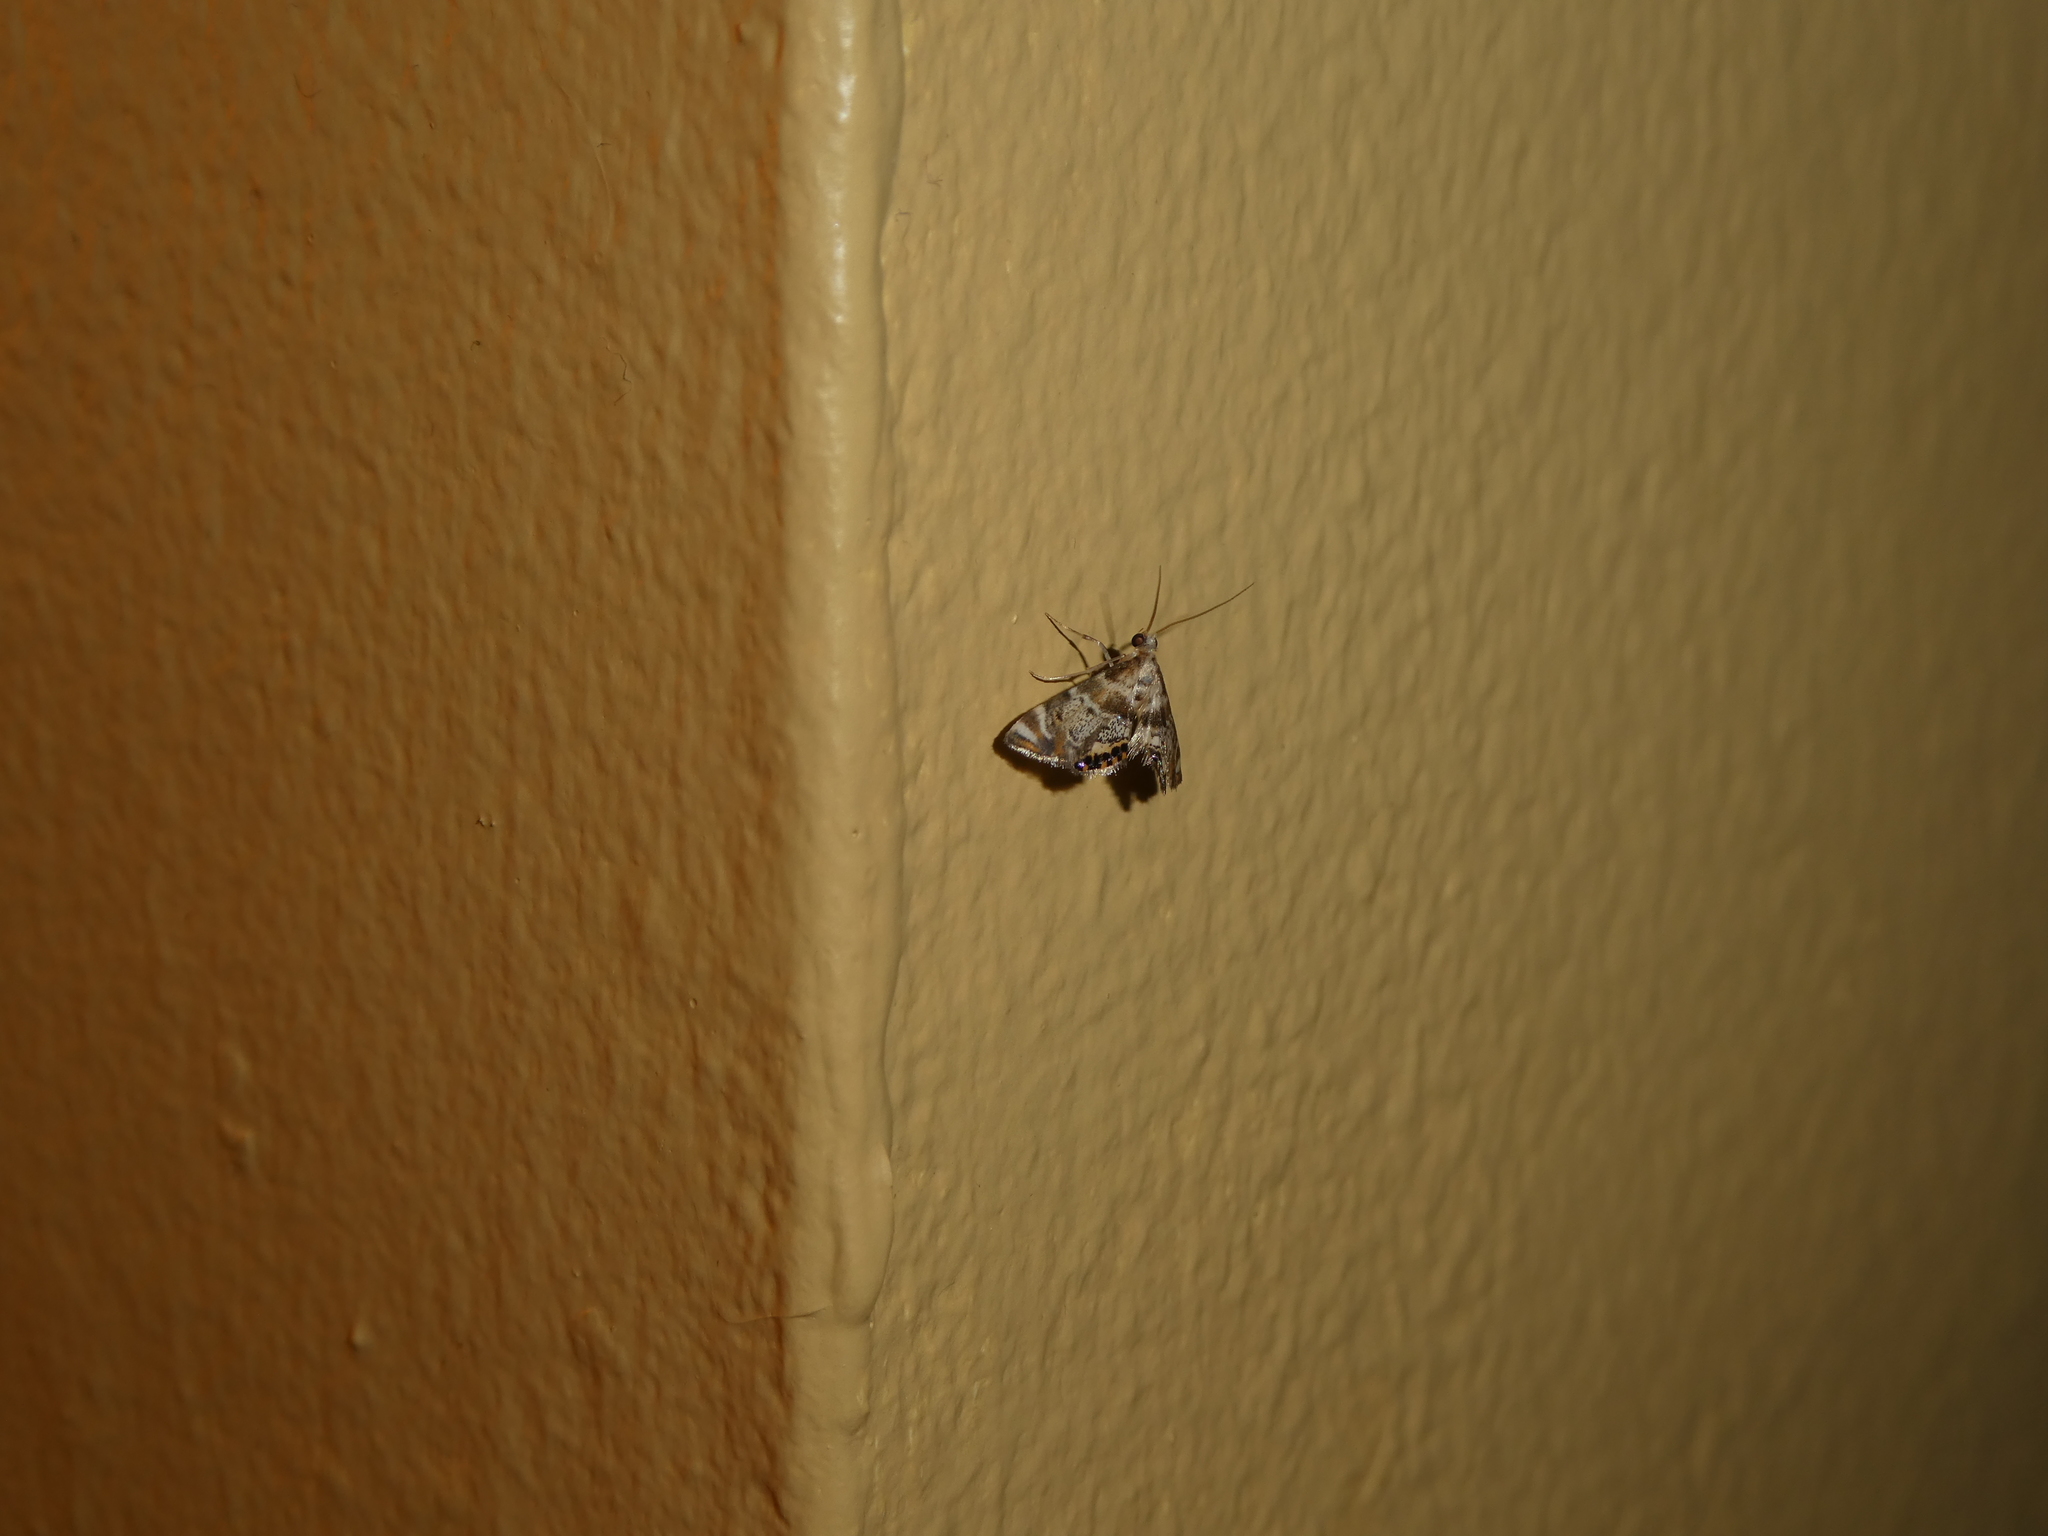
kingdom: Animalia
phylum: Arthropoda
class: Insecta
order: Lepidoptera
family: Crambidae
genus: Petrophila
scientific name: Petrophila fulicalis
